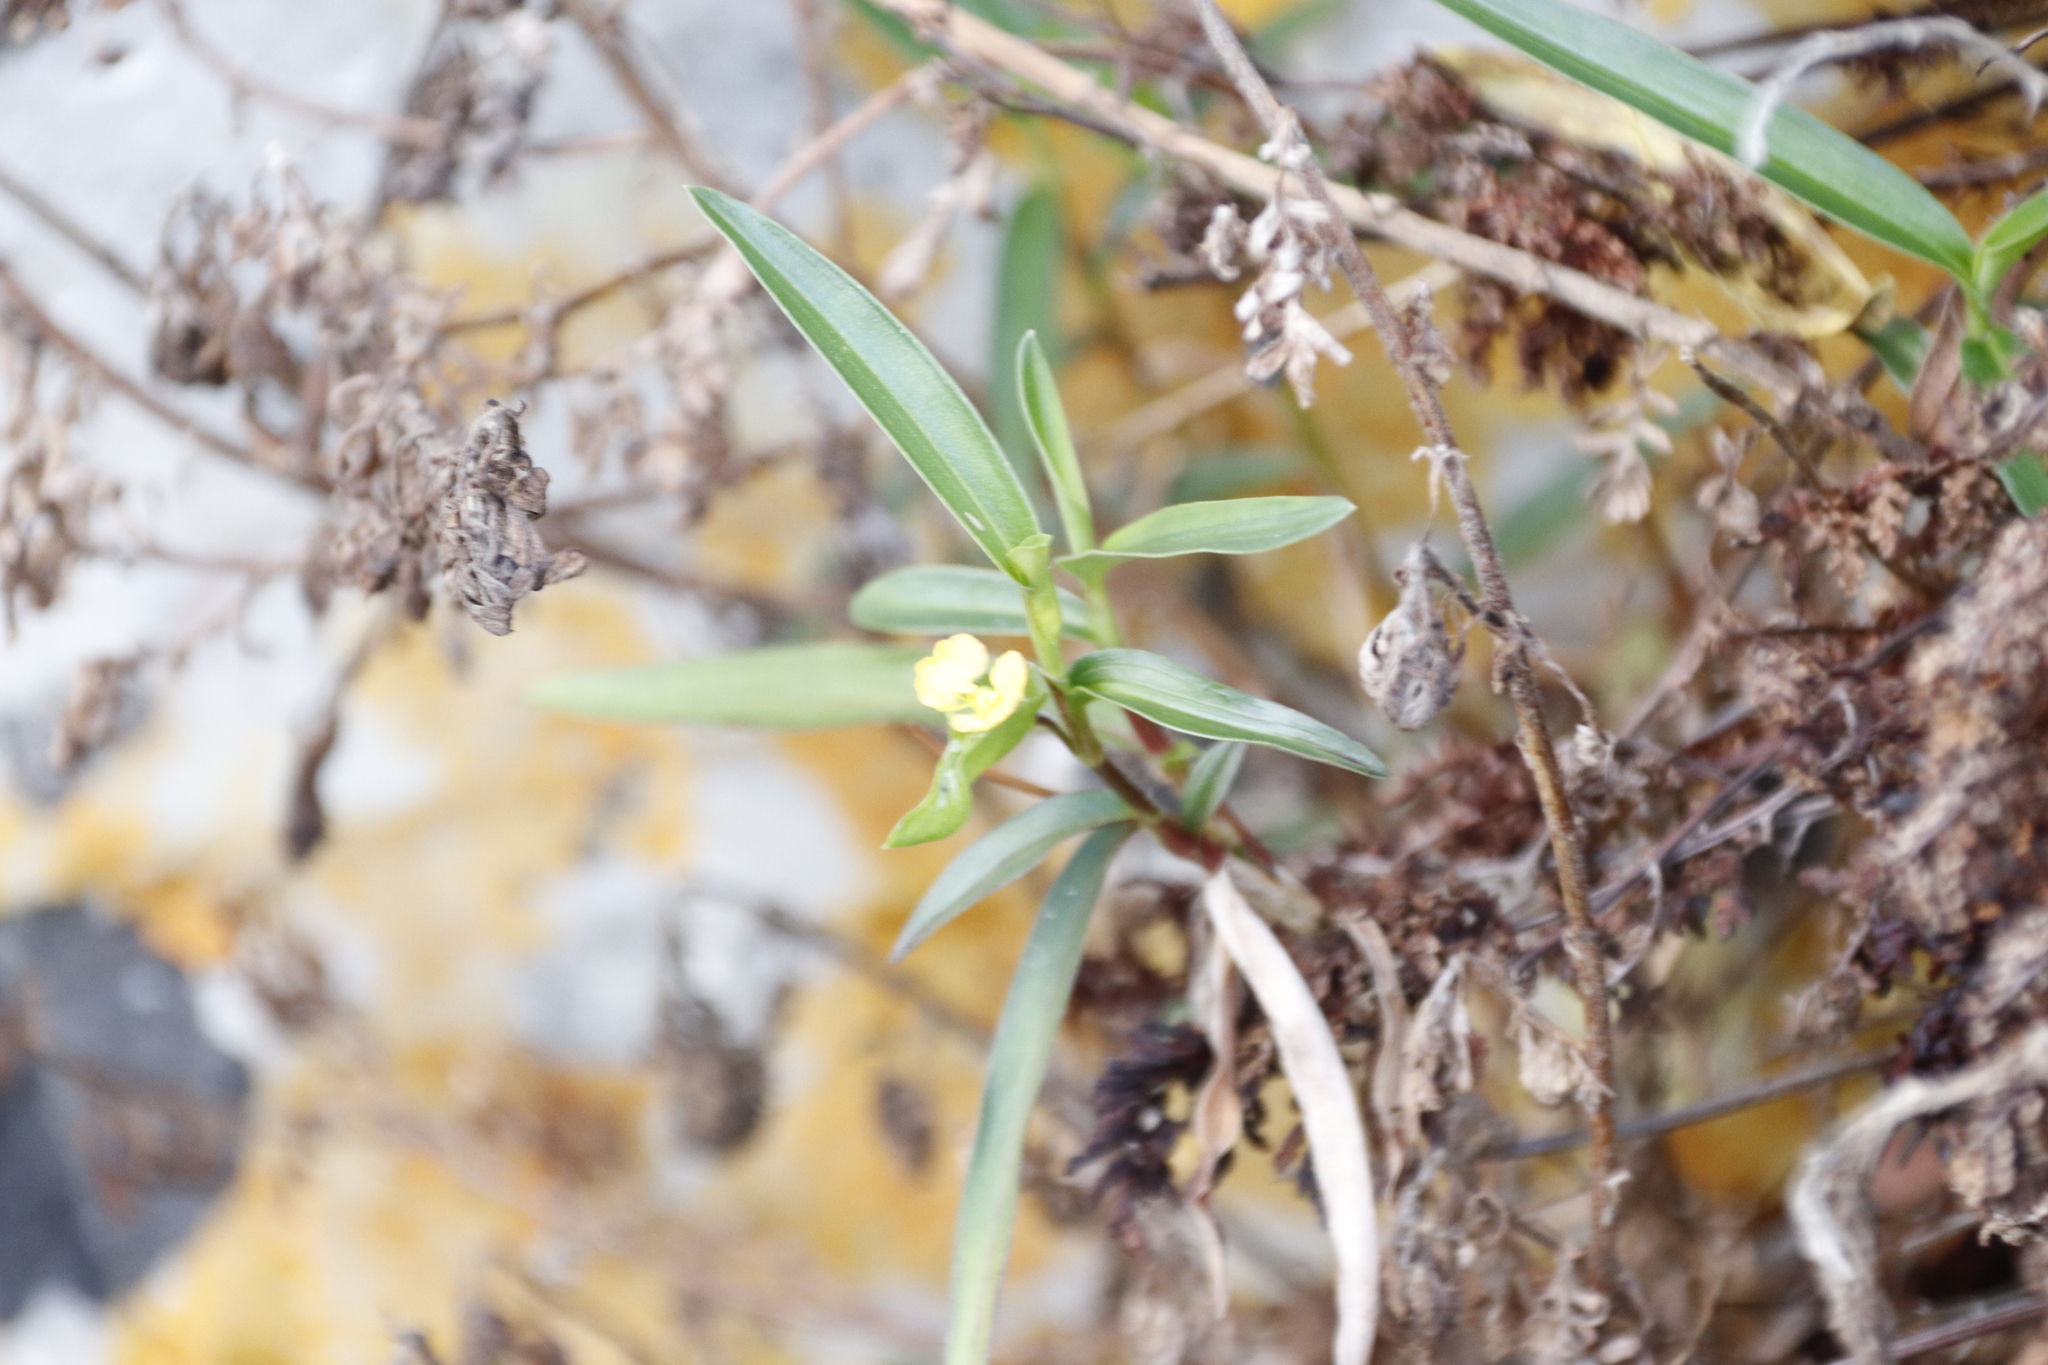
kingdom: Plantae
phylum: Tracheophyta
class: Liliopsida
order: Commelinales
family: Commelinaceae
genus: Commelina
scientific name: Commelina africana
